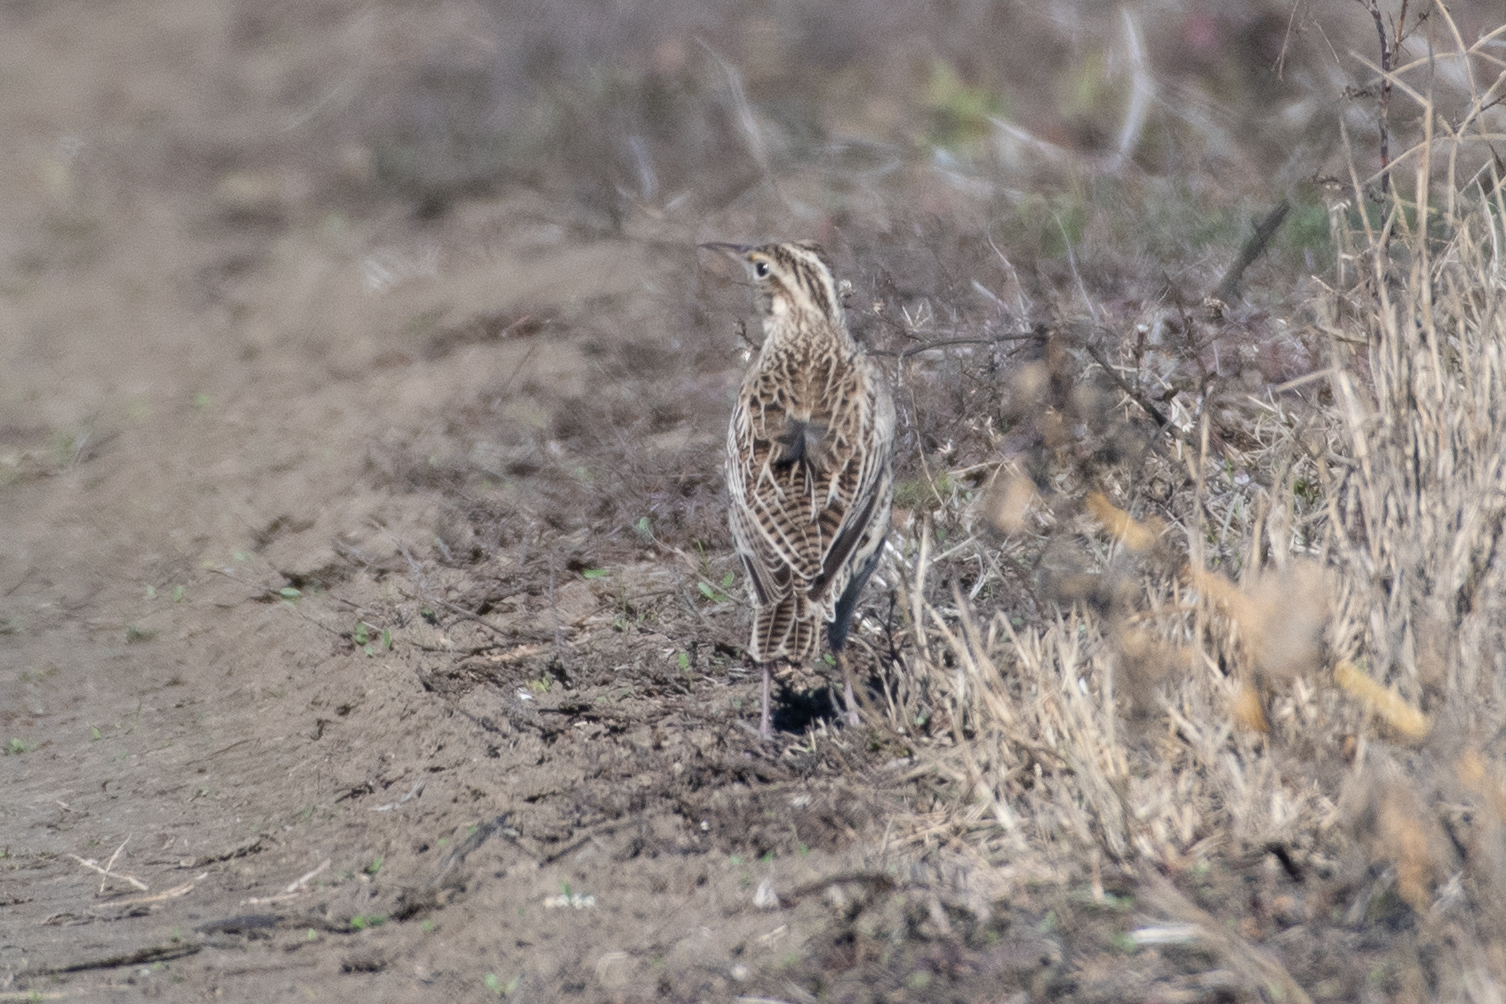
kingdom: Animalia
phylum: Chordata
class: Aves
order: Passeriformes
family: Icteridae
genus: Sturnella
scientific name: Sturnella neglecta
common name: Western meadowlark
